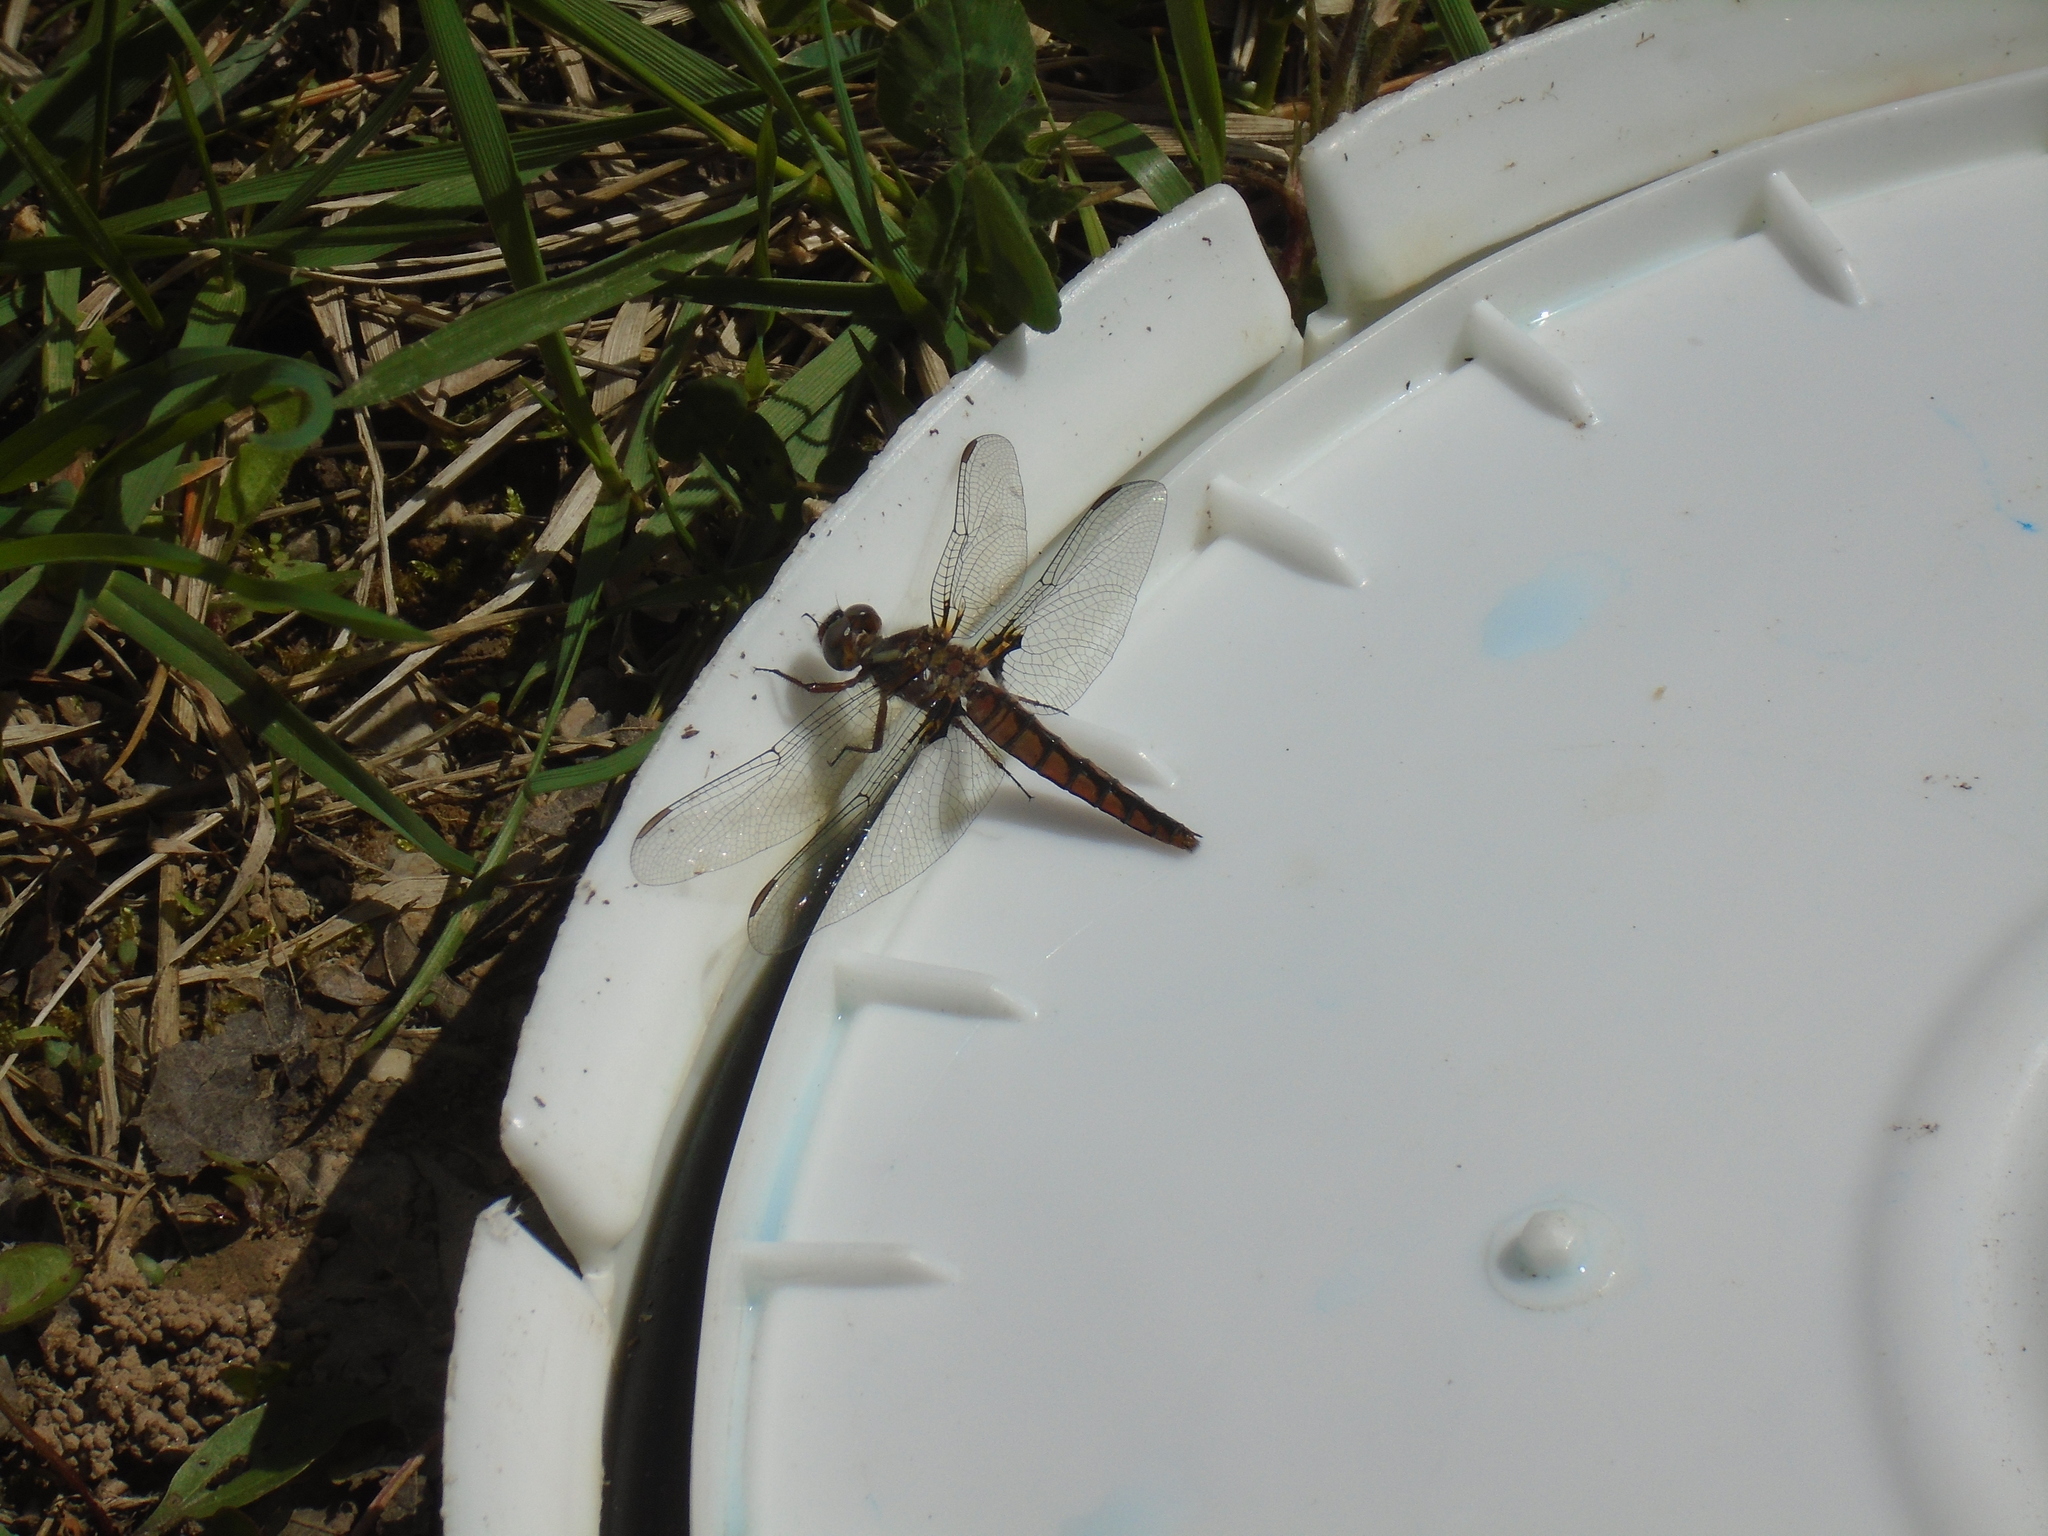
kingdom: Animalia
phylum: Arthropoda
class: Insecta
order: Odonata
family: Libellulidae
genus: Ladona
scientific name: Ladona deplanata
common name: Blue corporal
